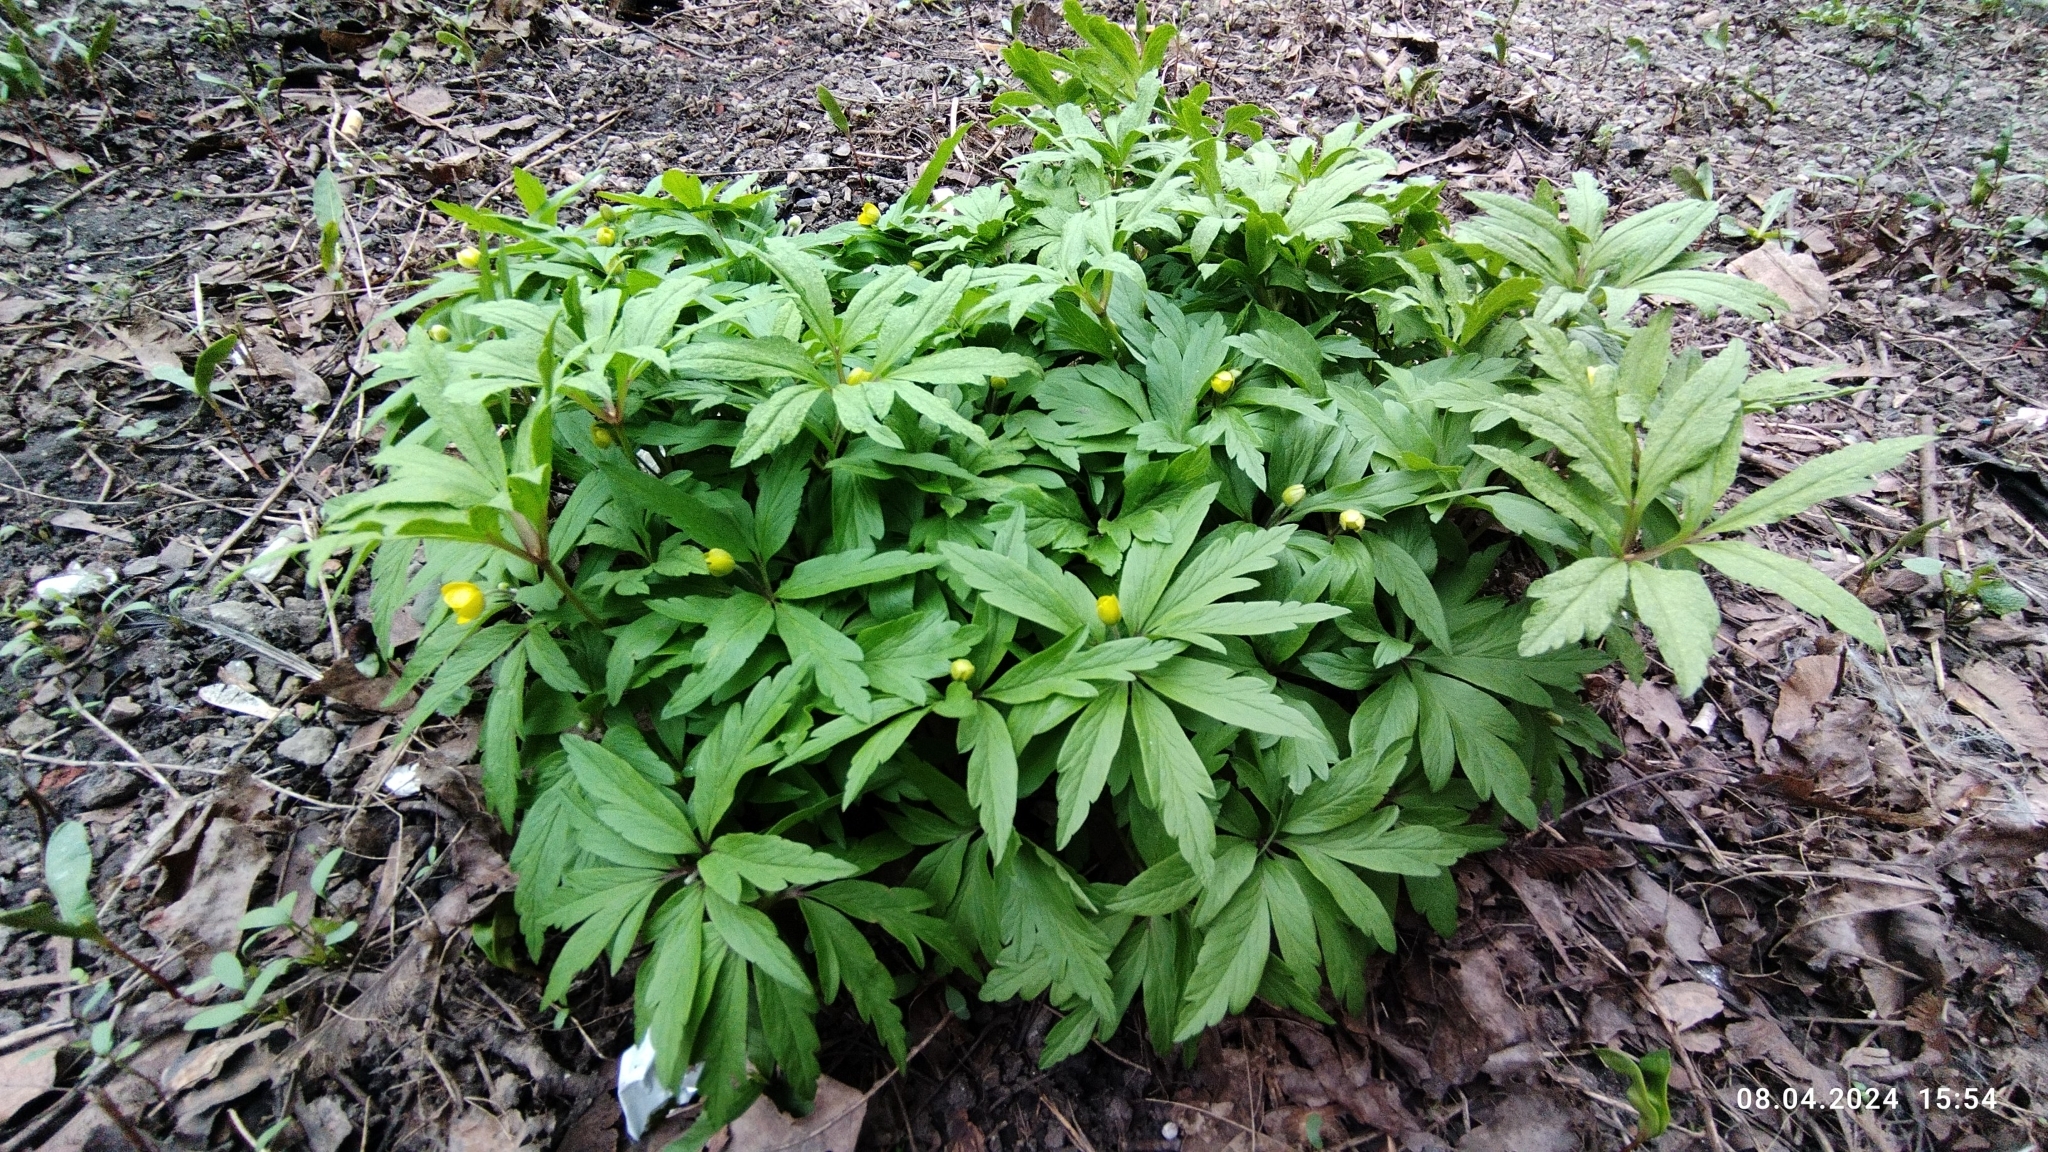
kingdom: Plantae
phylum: Tracheophyta
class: Magnoliopsida
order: Ranunculales
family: Ranunculaceae
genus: Anemone
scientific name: Anemone ranunculoides
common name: Yellow anemone
